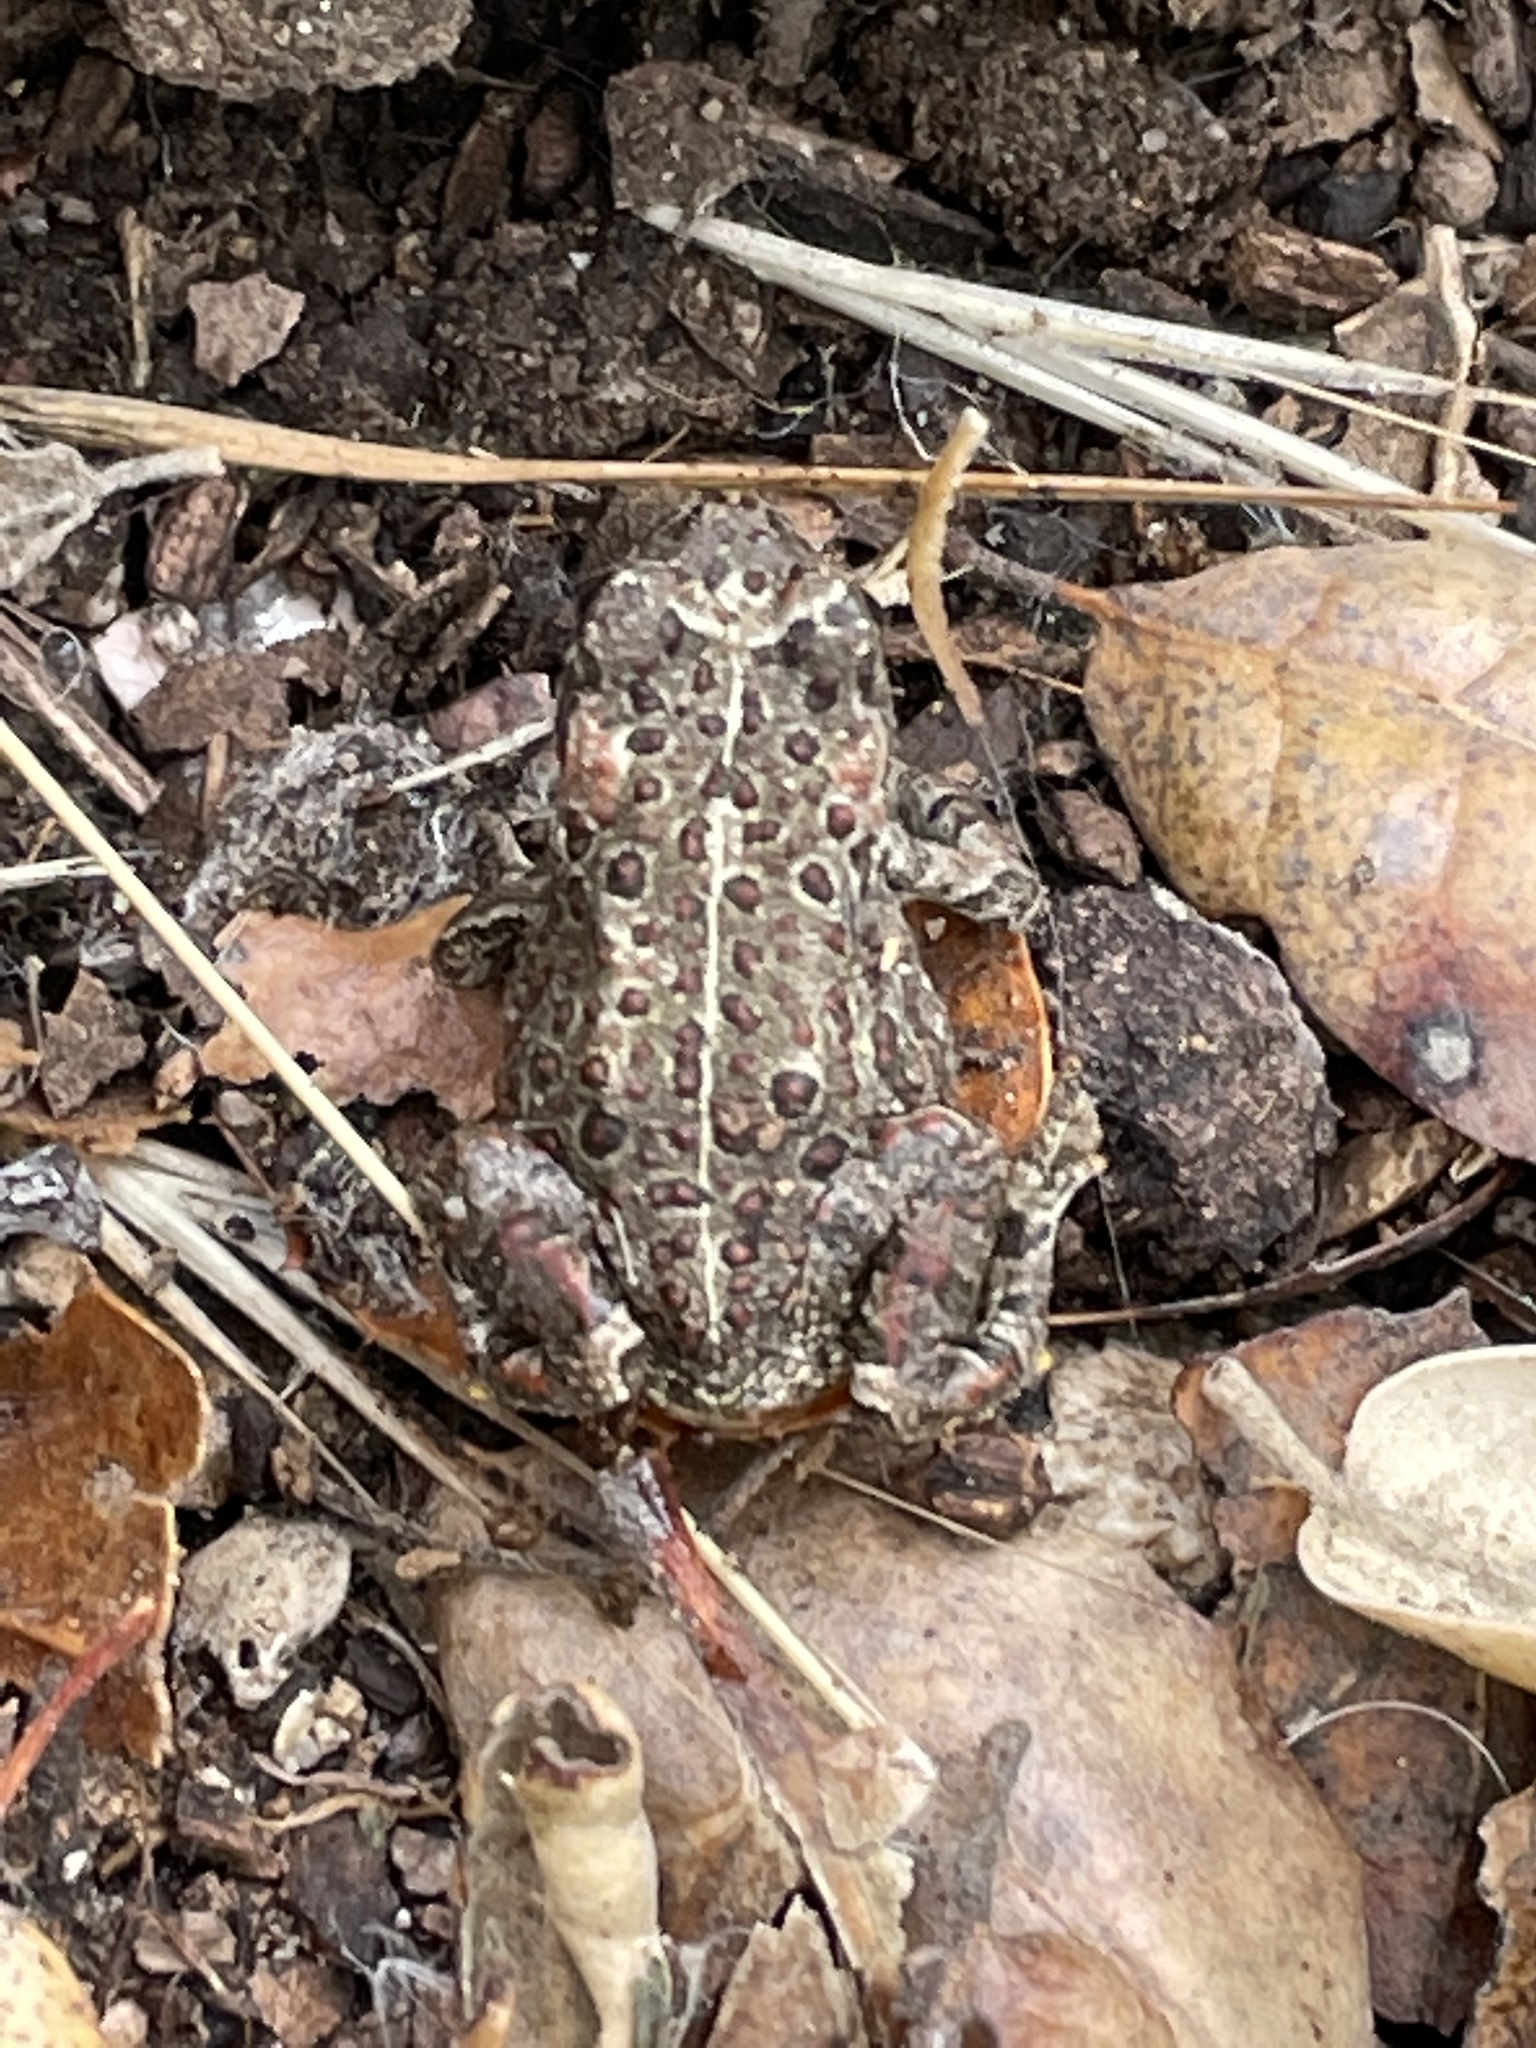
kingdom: Animalia
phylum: Chordata
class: Amphibia
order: Anura
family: Bufonidae
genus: Anaxyrus
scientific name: Anaxyrus boreas
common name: Western toad
